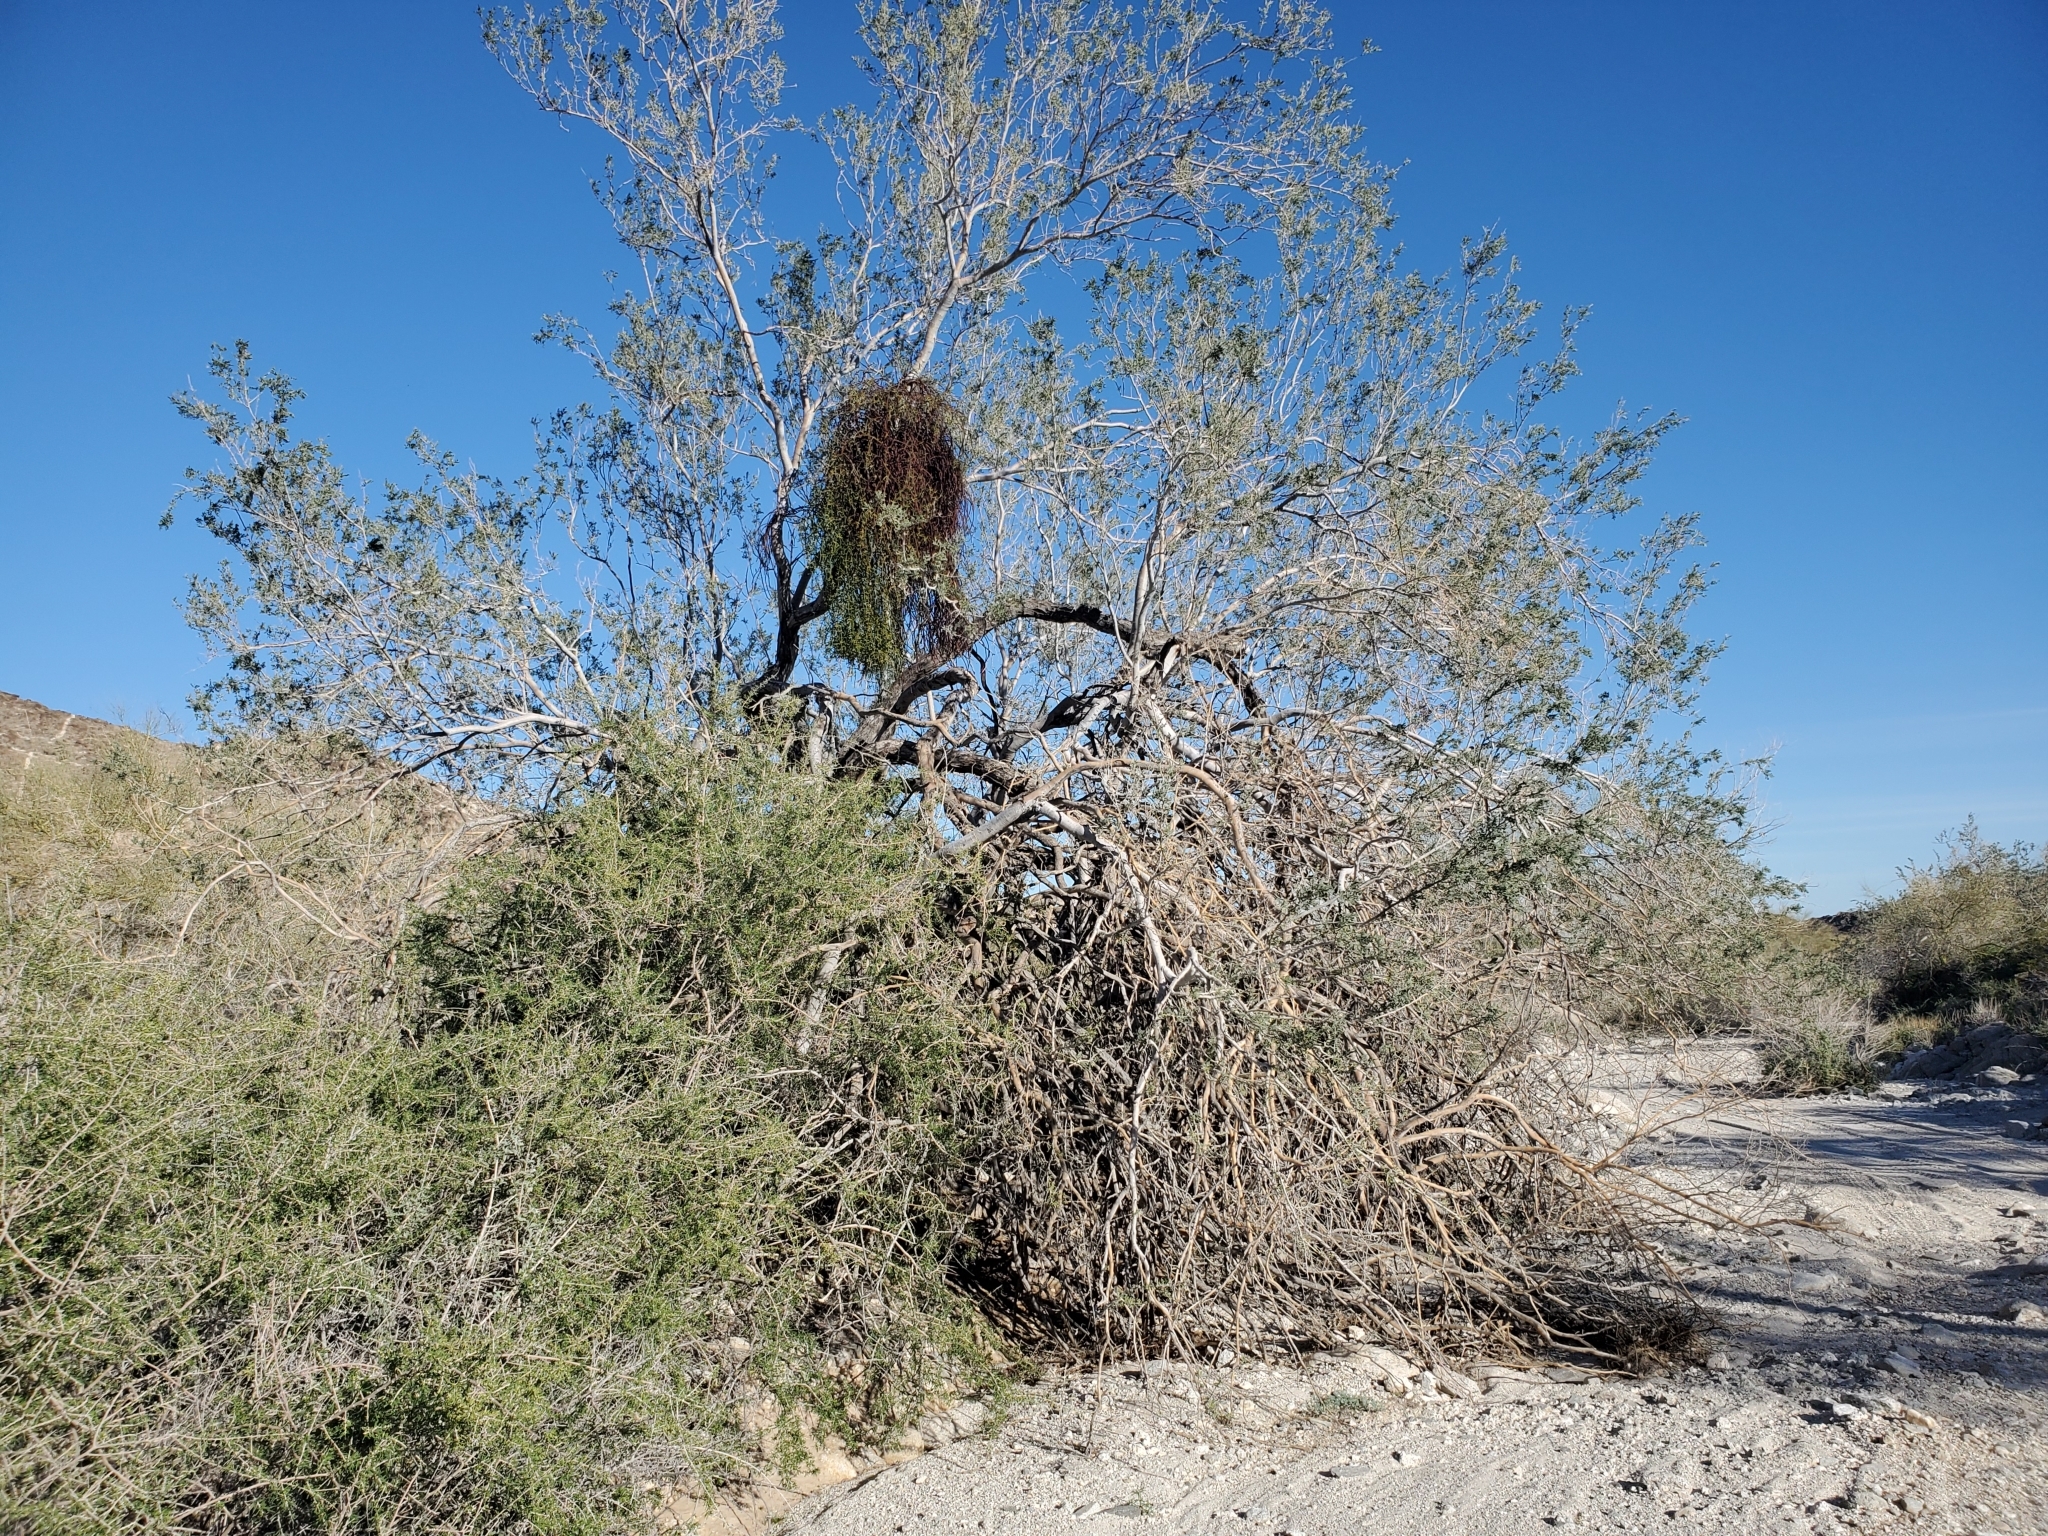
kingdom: Plantae
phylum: Tracheophyta
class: Magnoliopsida
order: Fabales
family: Fabaceae
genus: Olneya
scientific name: Olneya tesota
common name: Desert ironwood
